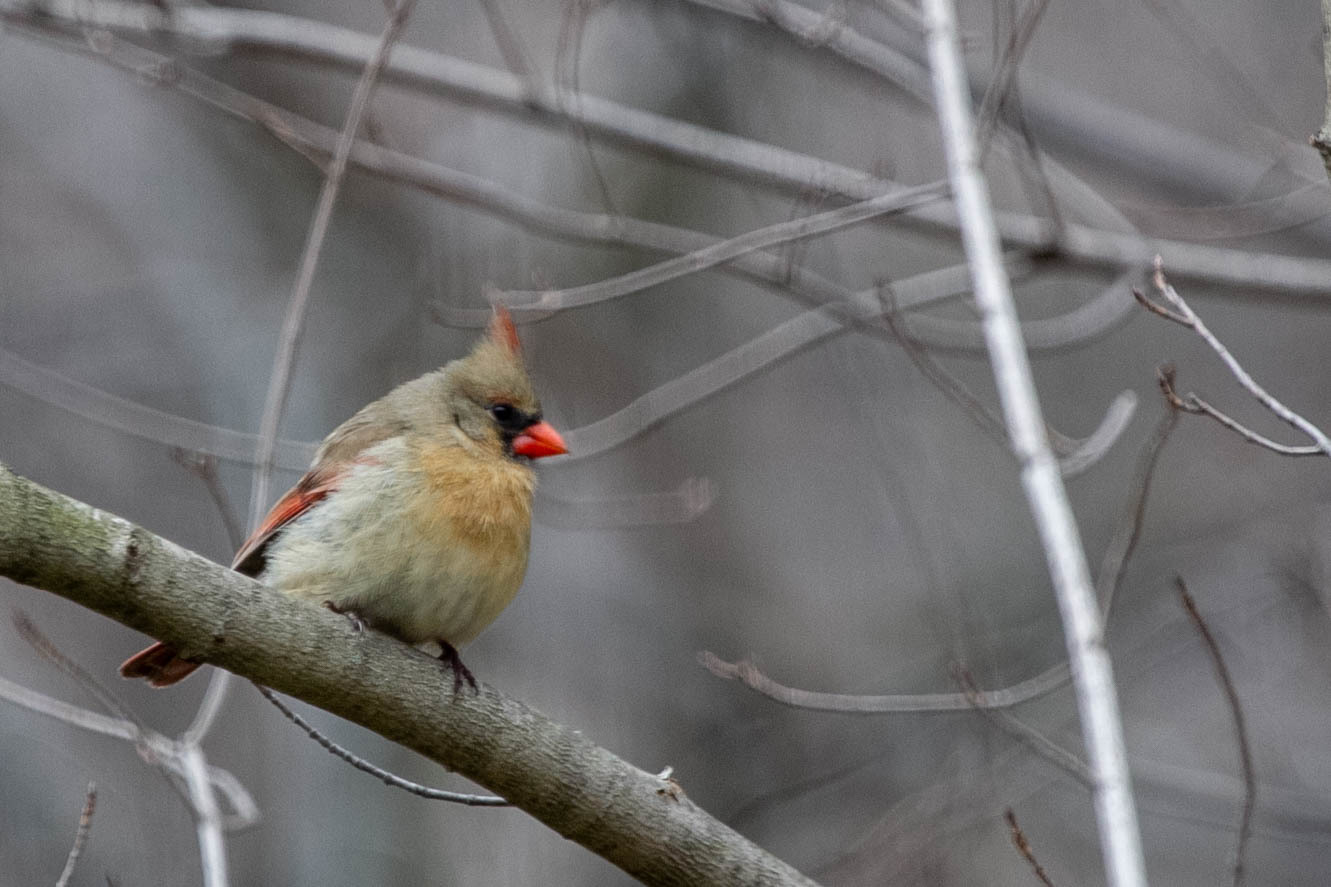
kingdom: Animalia
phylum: Chordata
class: Aves
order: Passeriformes
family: Cardinalidae
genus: Cardinalis
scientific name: Cardinalis cardinalis
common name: Northern cardinal
